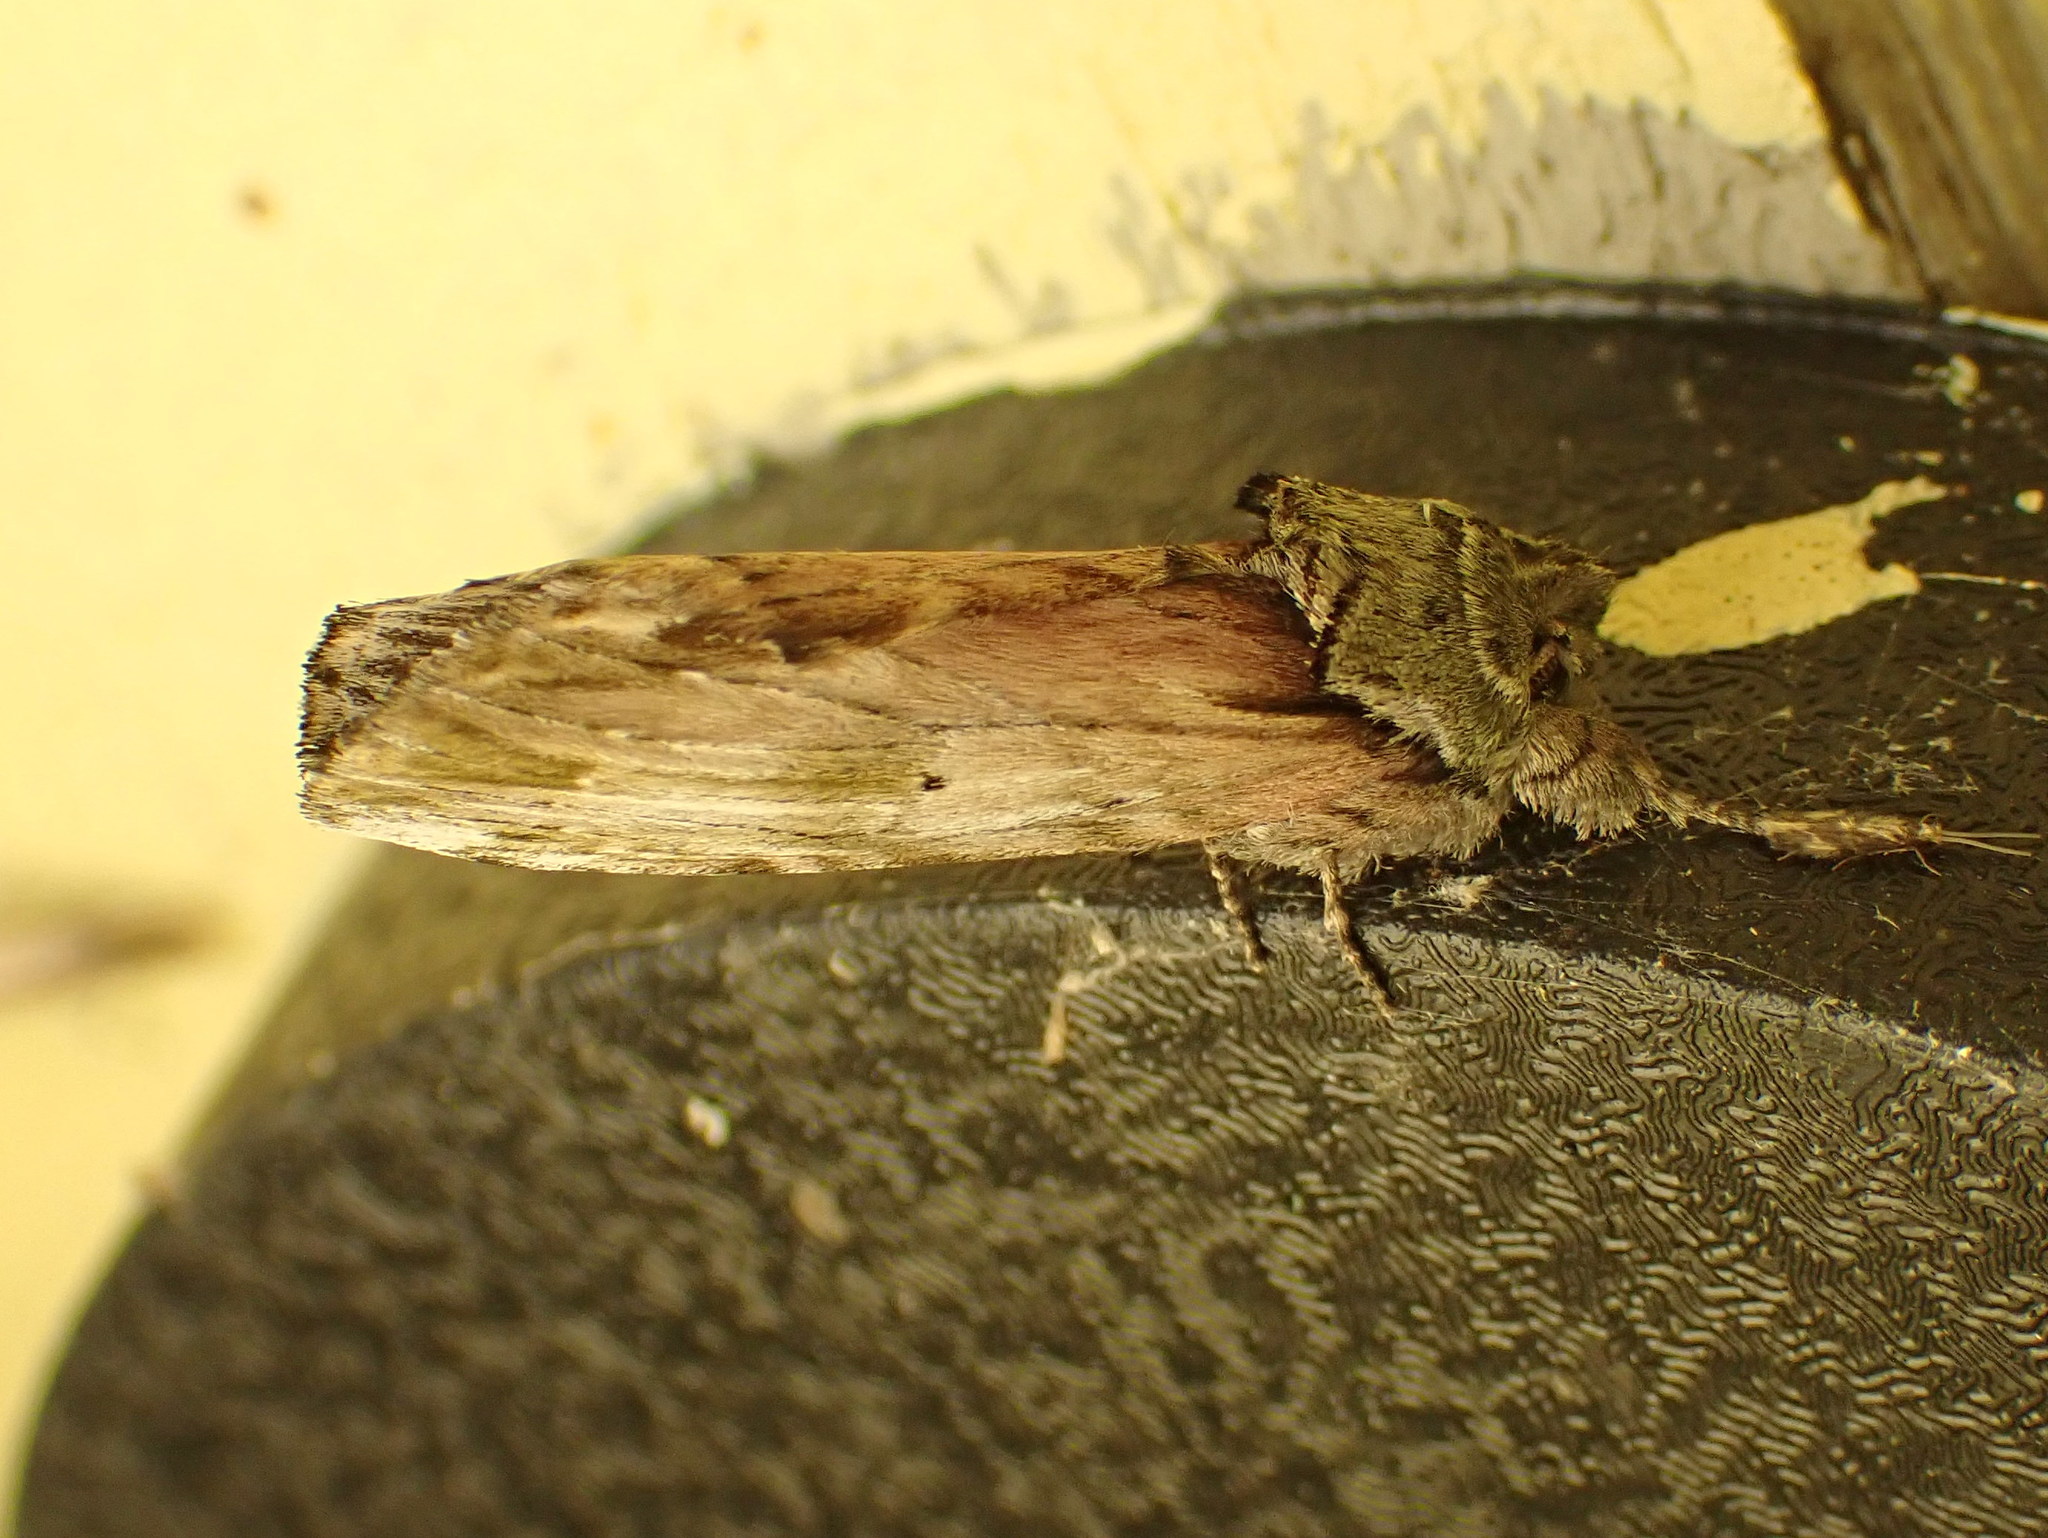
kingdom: Animalia
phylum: Arthropoda
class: Insecta
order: Lepidoptera
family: Notodontidae
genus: Schizura
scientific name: Schizura
